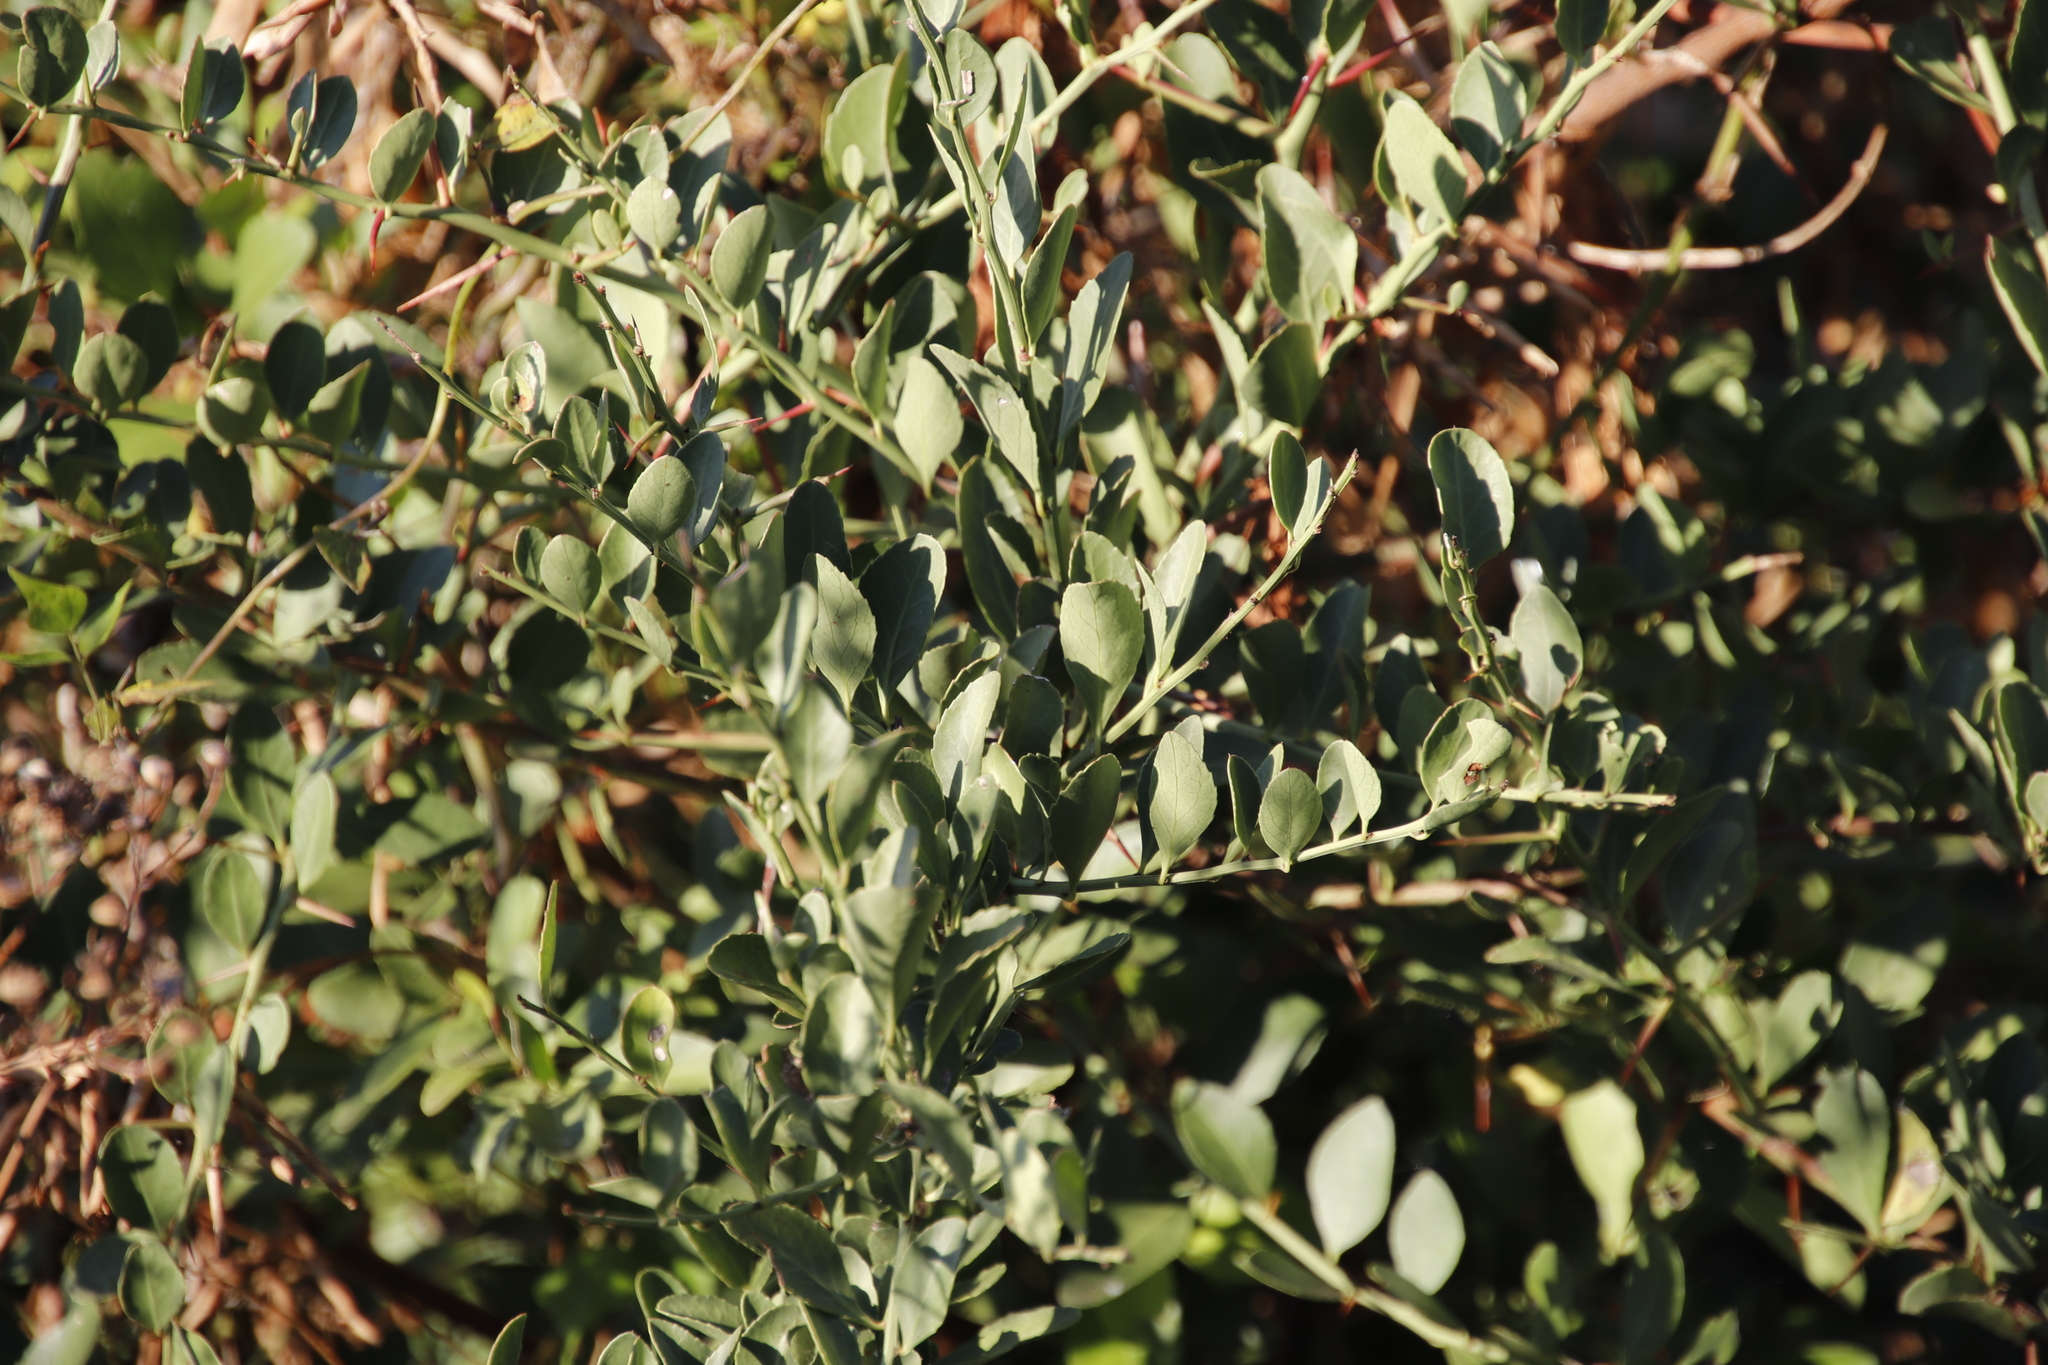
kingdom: Plantae
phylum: Tracheophyta
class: Magnoliopsida
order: Celastrales
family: Celastraceae
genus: Gymnosporia
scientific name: Gymnosporia buxifolia
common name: Common spike-thorn
